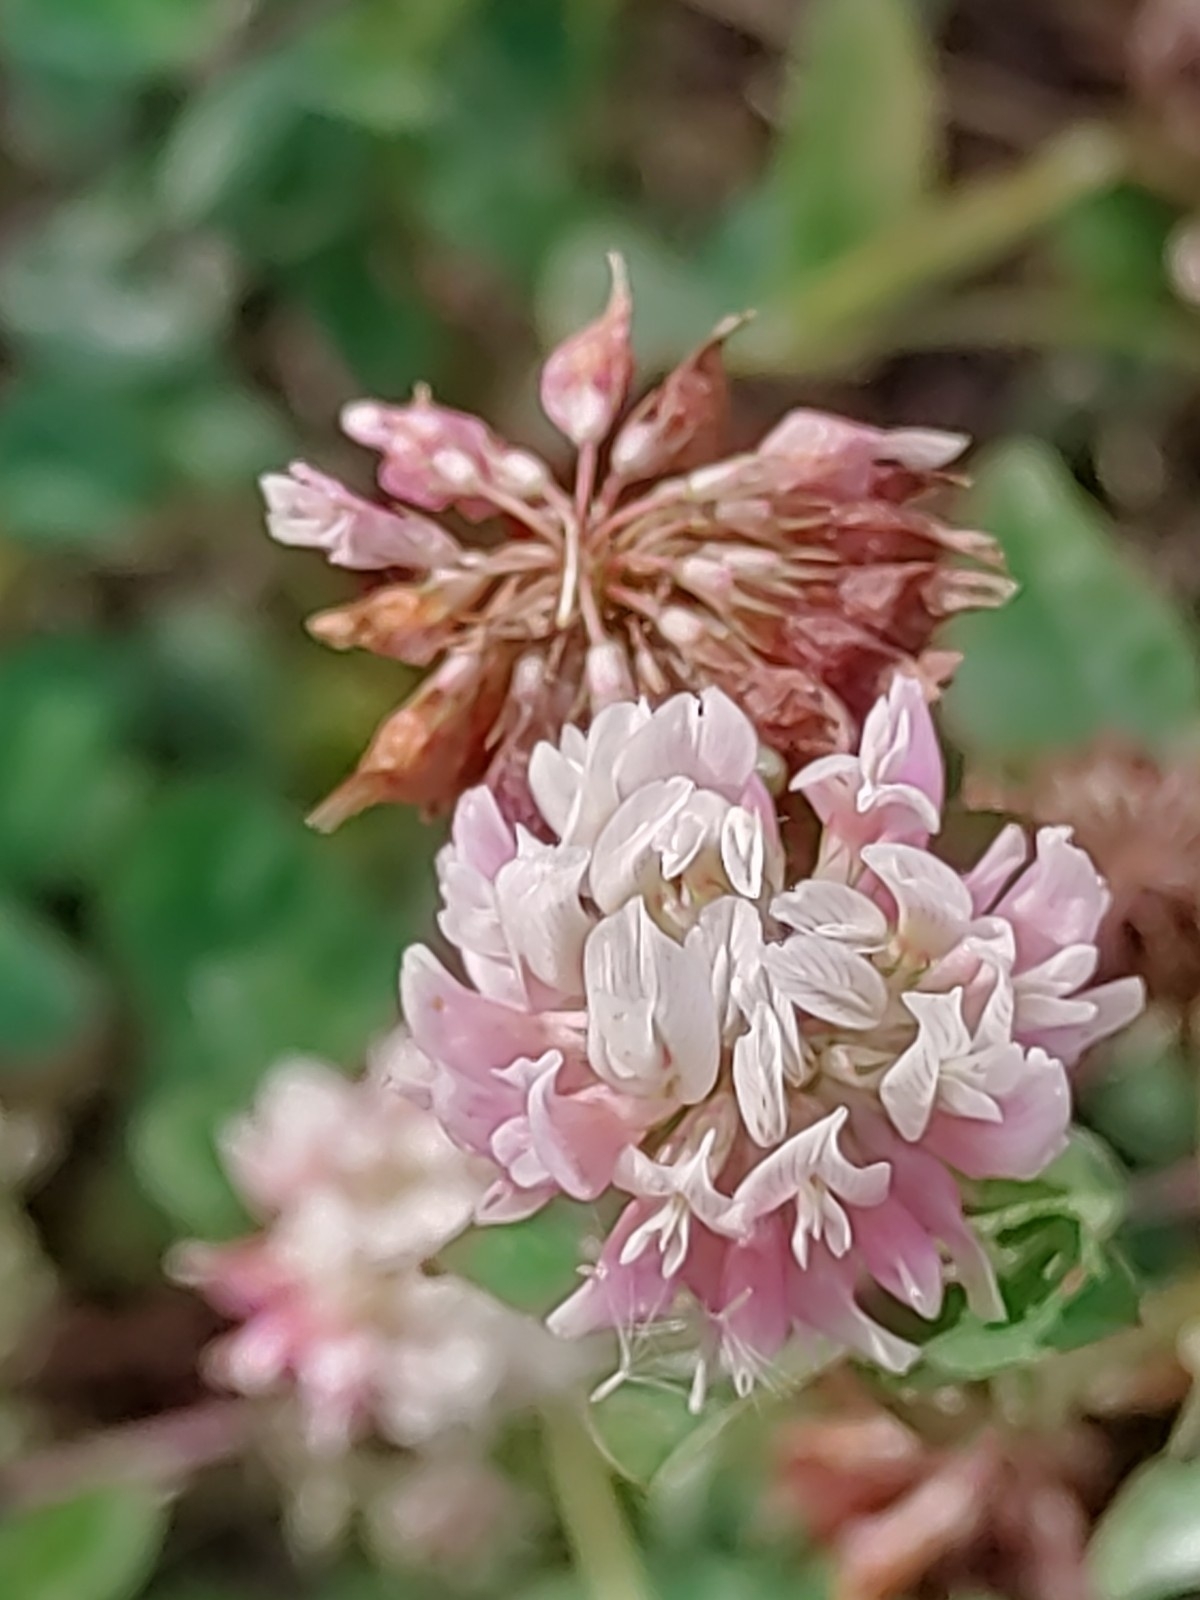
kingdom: Plantae
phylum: Tracheophyta
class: Magnoliopsida
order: Fabales
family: Fabaceae
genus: Trifolium
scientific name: Trifolium hybridum
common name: Alsike clover
